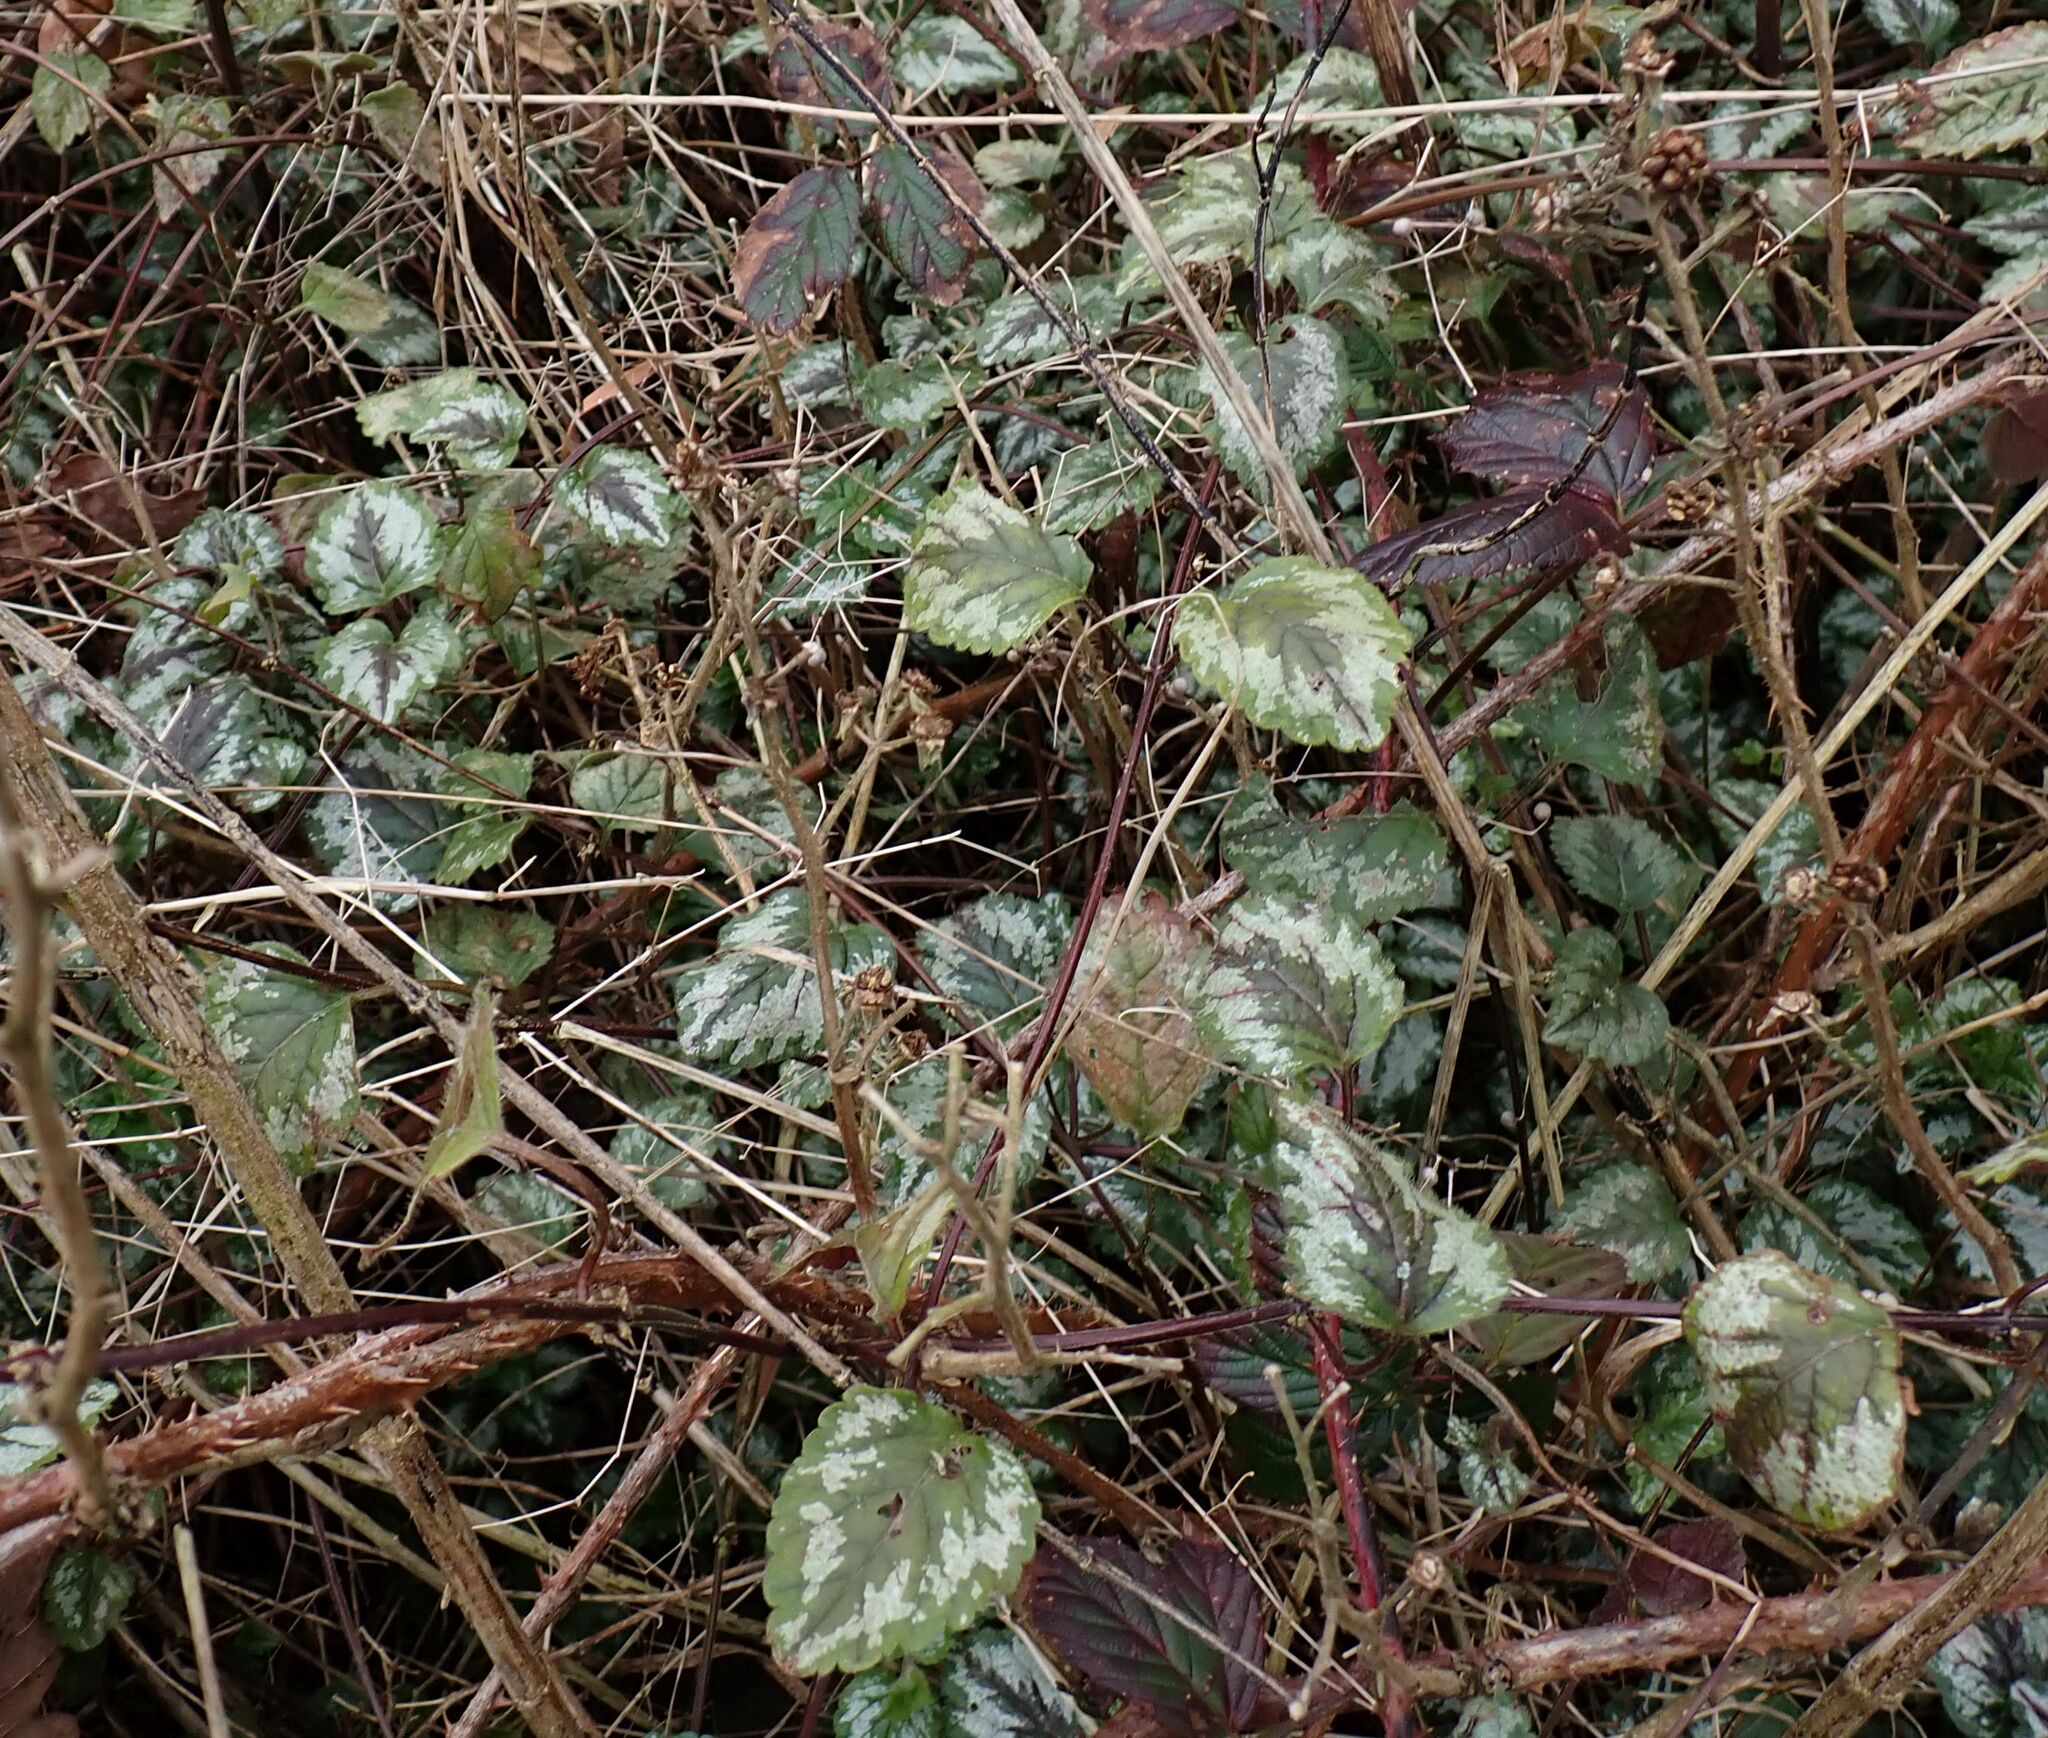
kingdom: Plantae
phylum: Tracheophyta
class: Magnoliopsida
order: Lamiales
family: Lamiaceae
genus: Lamium
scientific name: Lamium galeobdolon
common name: Yellow archangel
